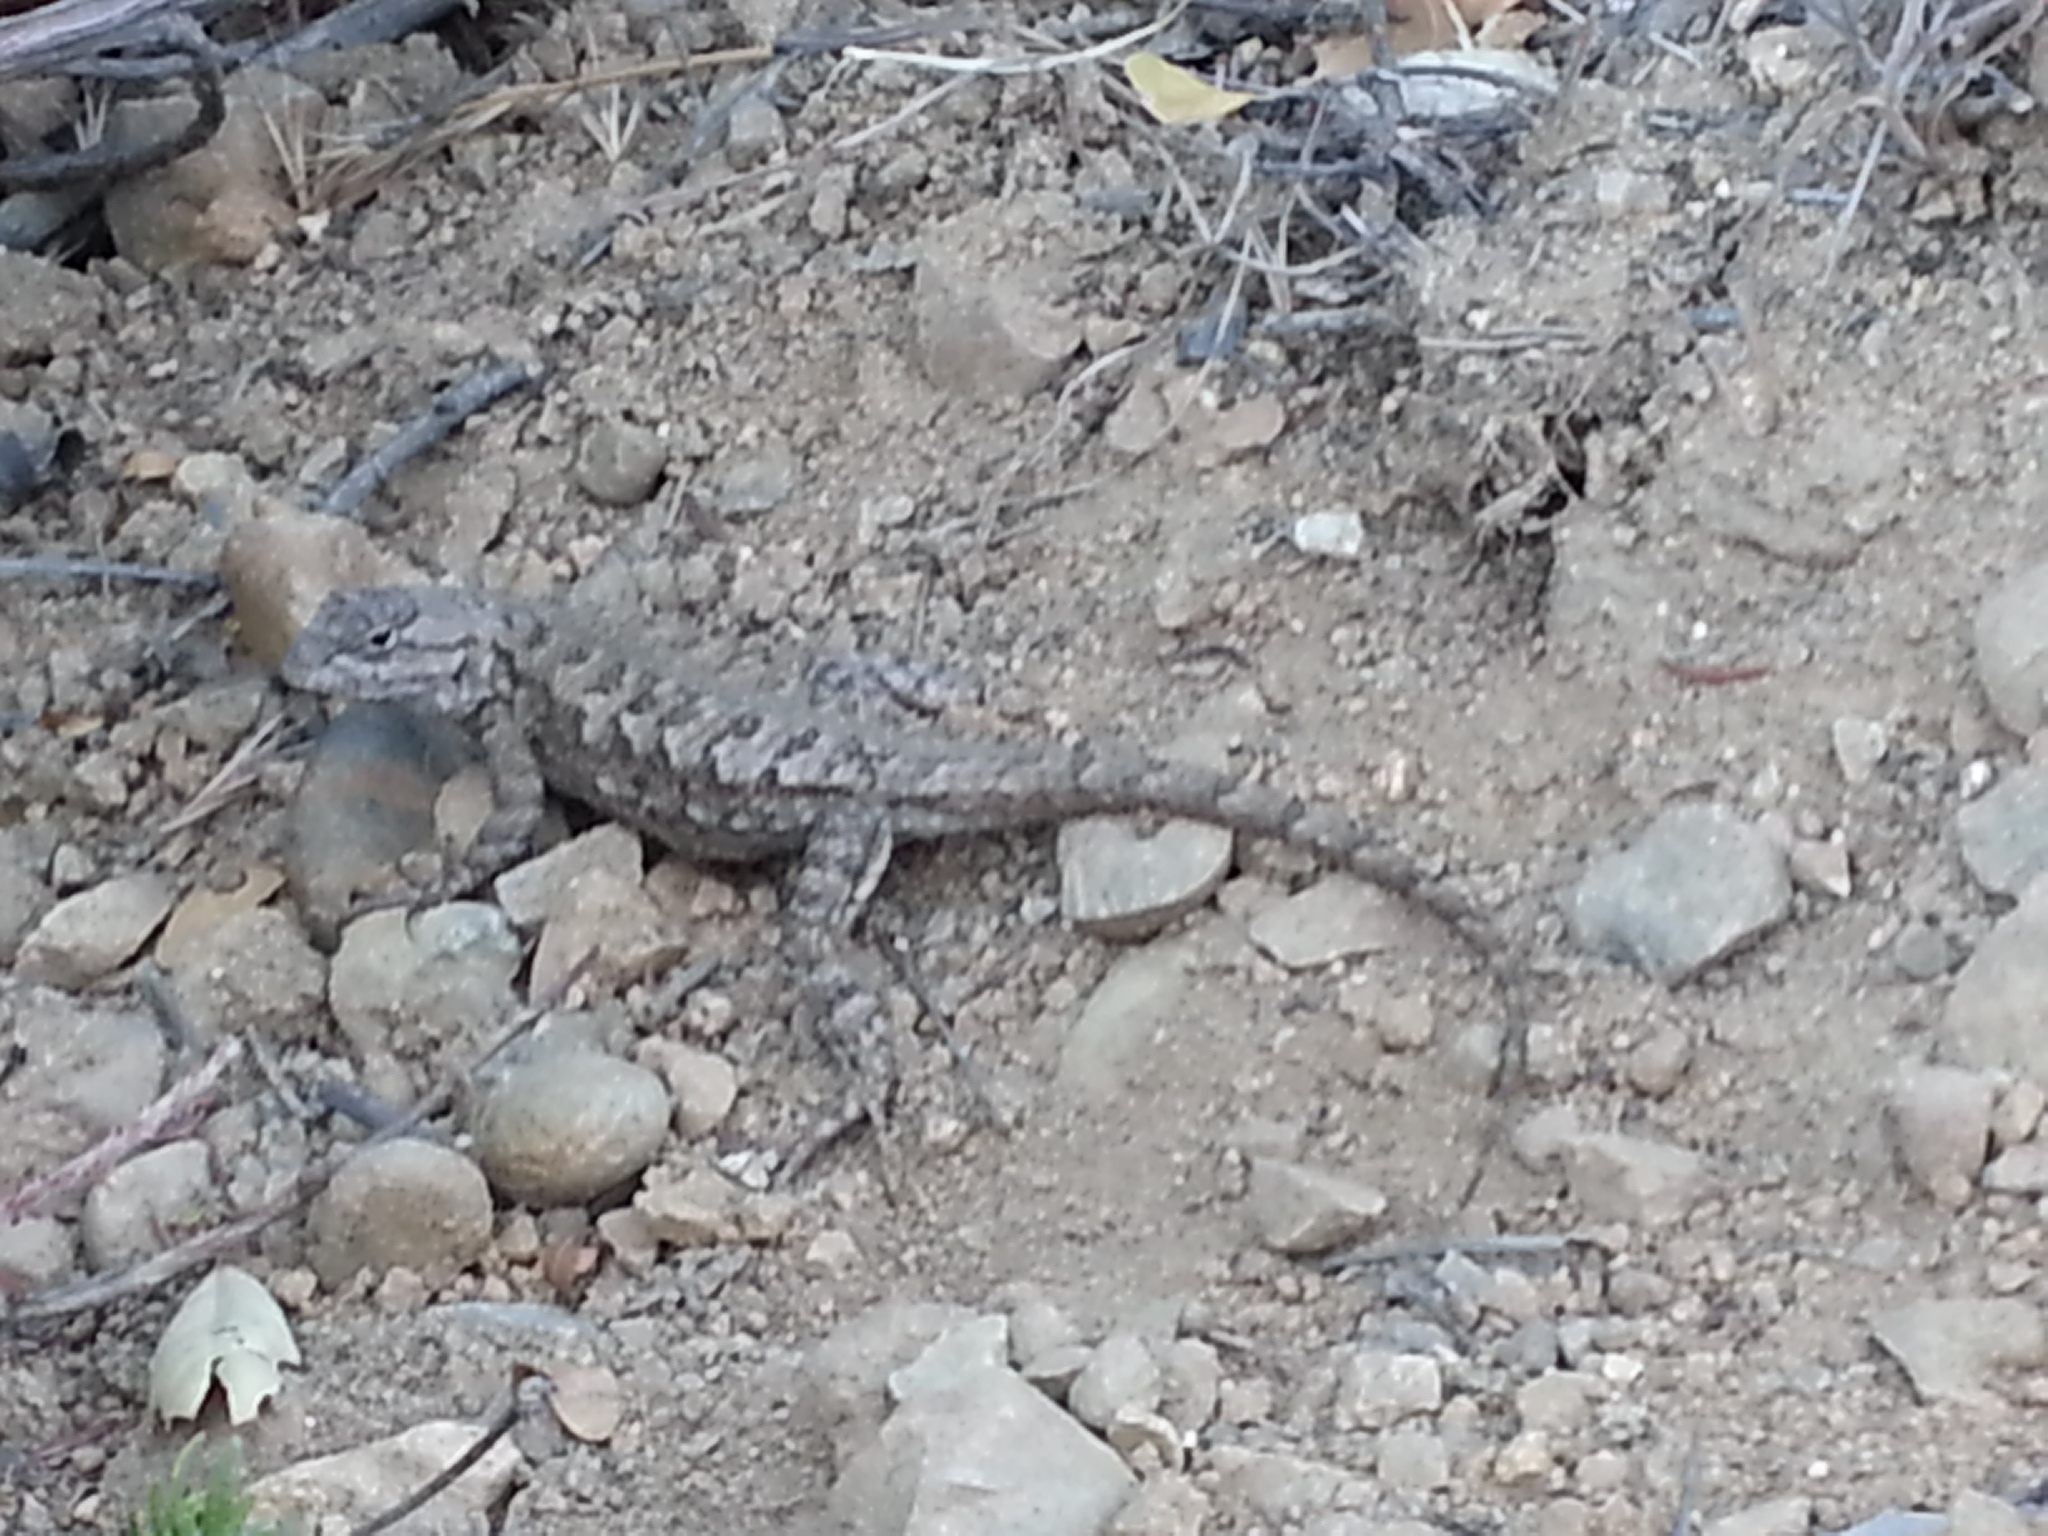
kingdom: Animalia
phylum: Chordata
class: Squamata
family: Phrynosomatidae
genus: Sceloporus
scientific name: Sceloporus occidentalis
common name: Western fence lizard
